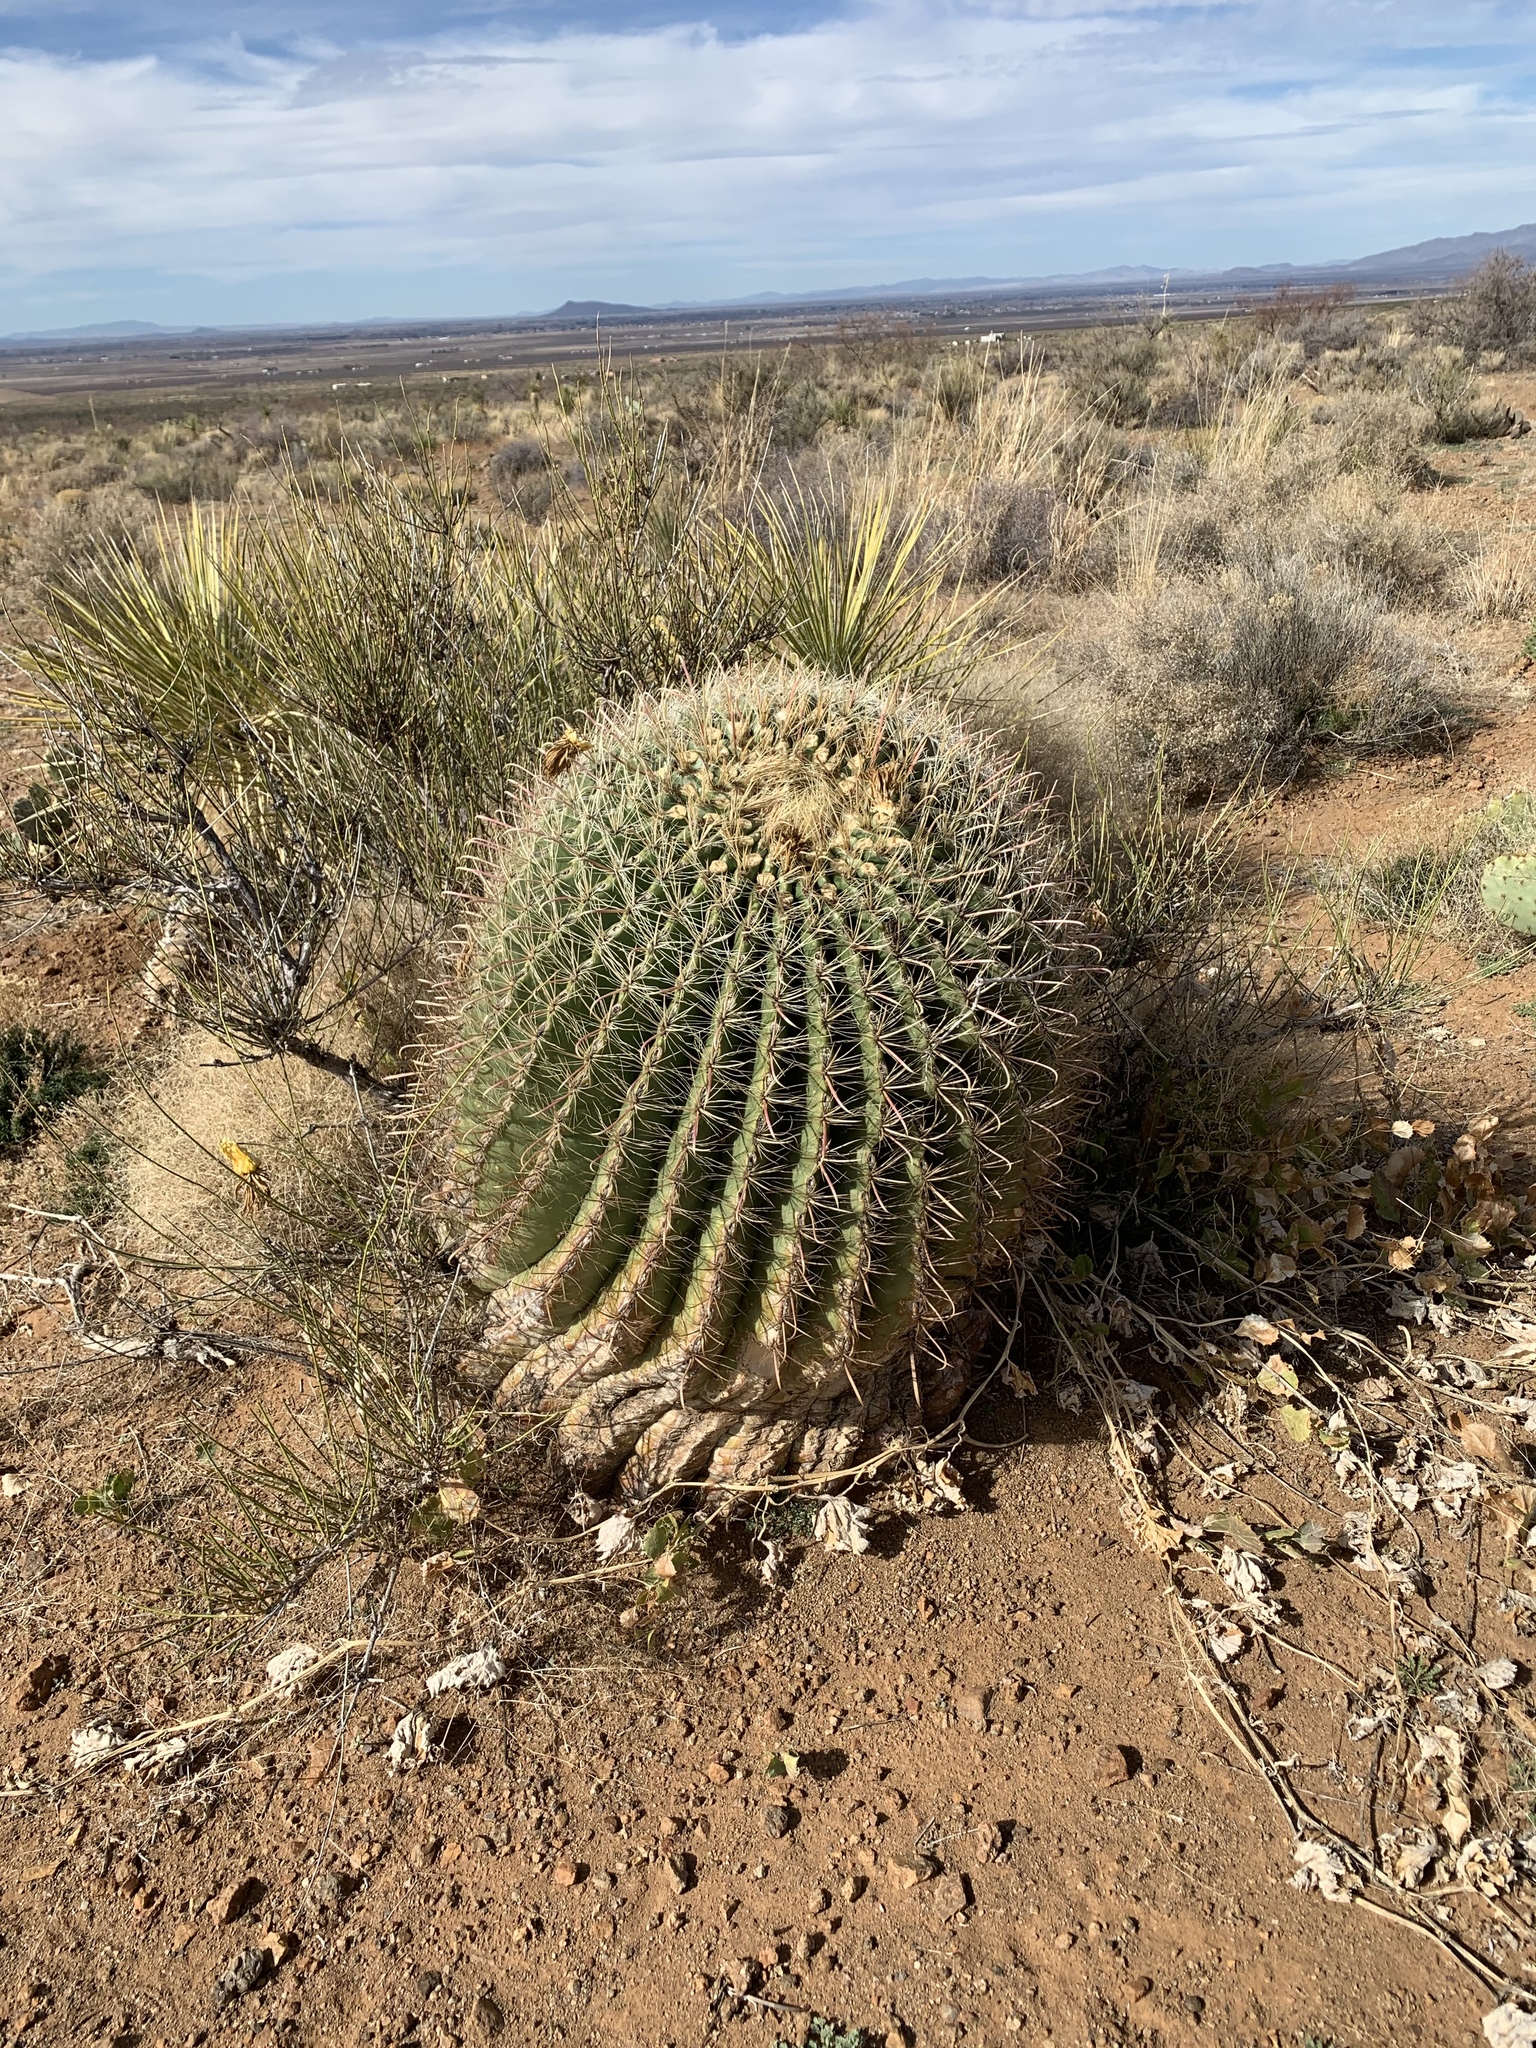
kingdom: Plantae
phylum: Tracheophyta
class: Magnoliopsida
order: Caryophyllales
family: Cactaceae
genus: Ferocactus
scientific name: Ferocactus wislizeni
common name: Candy barrel cactus
